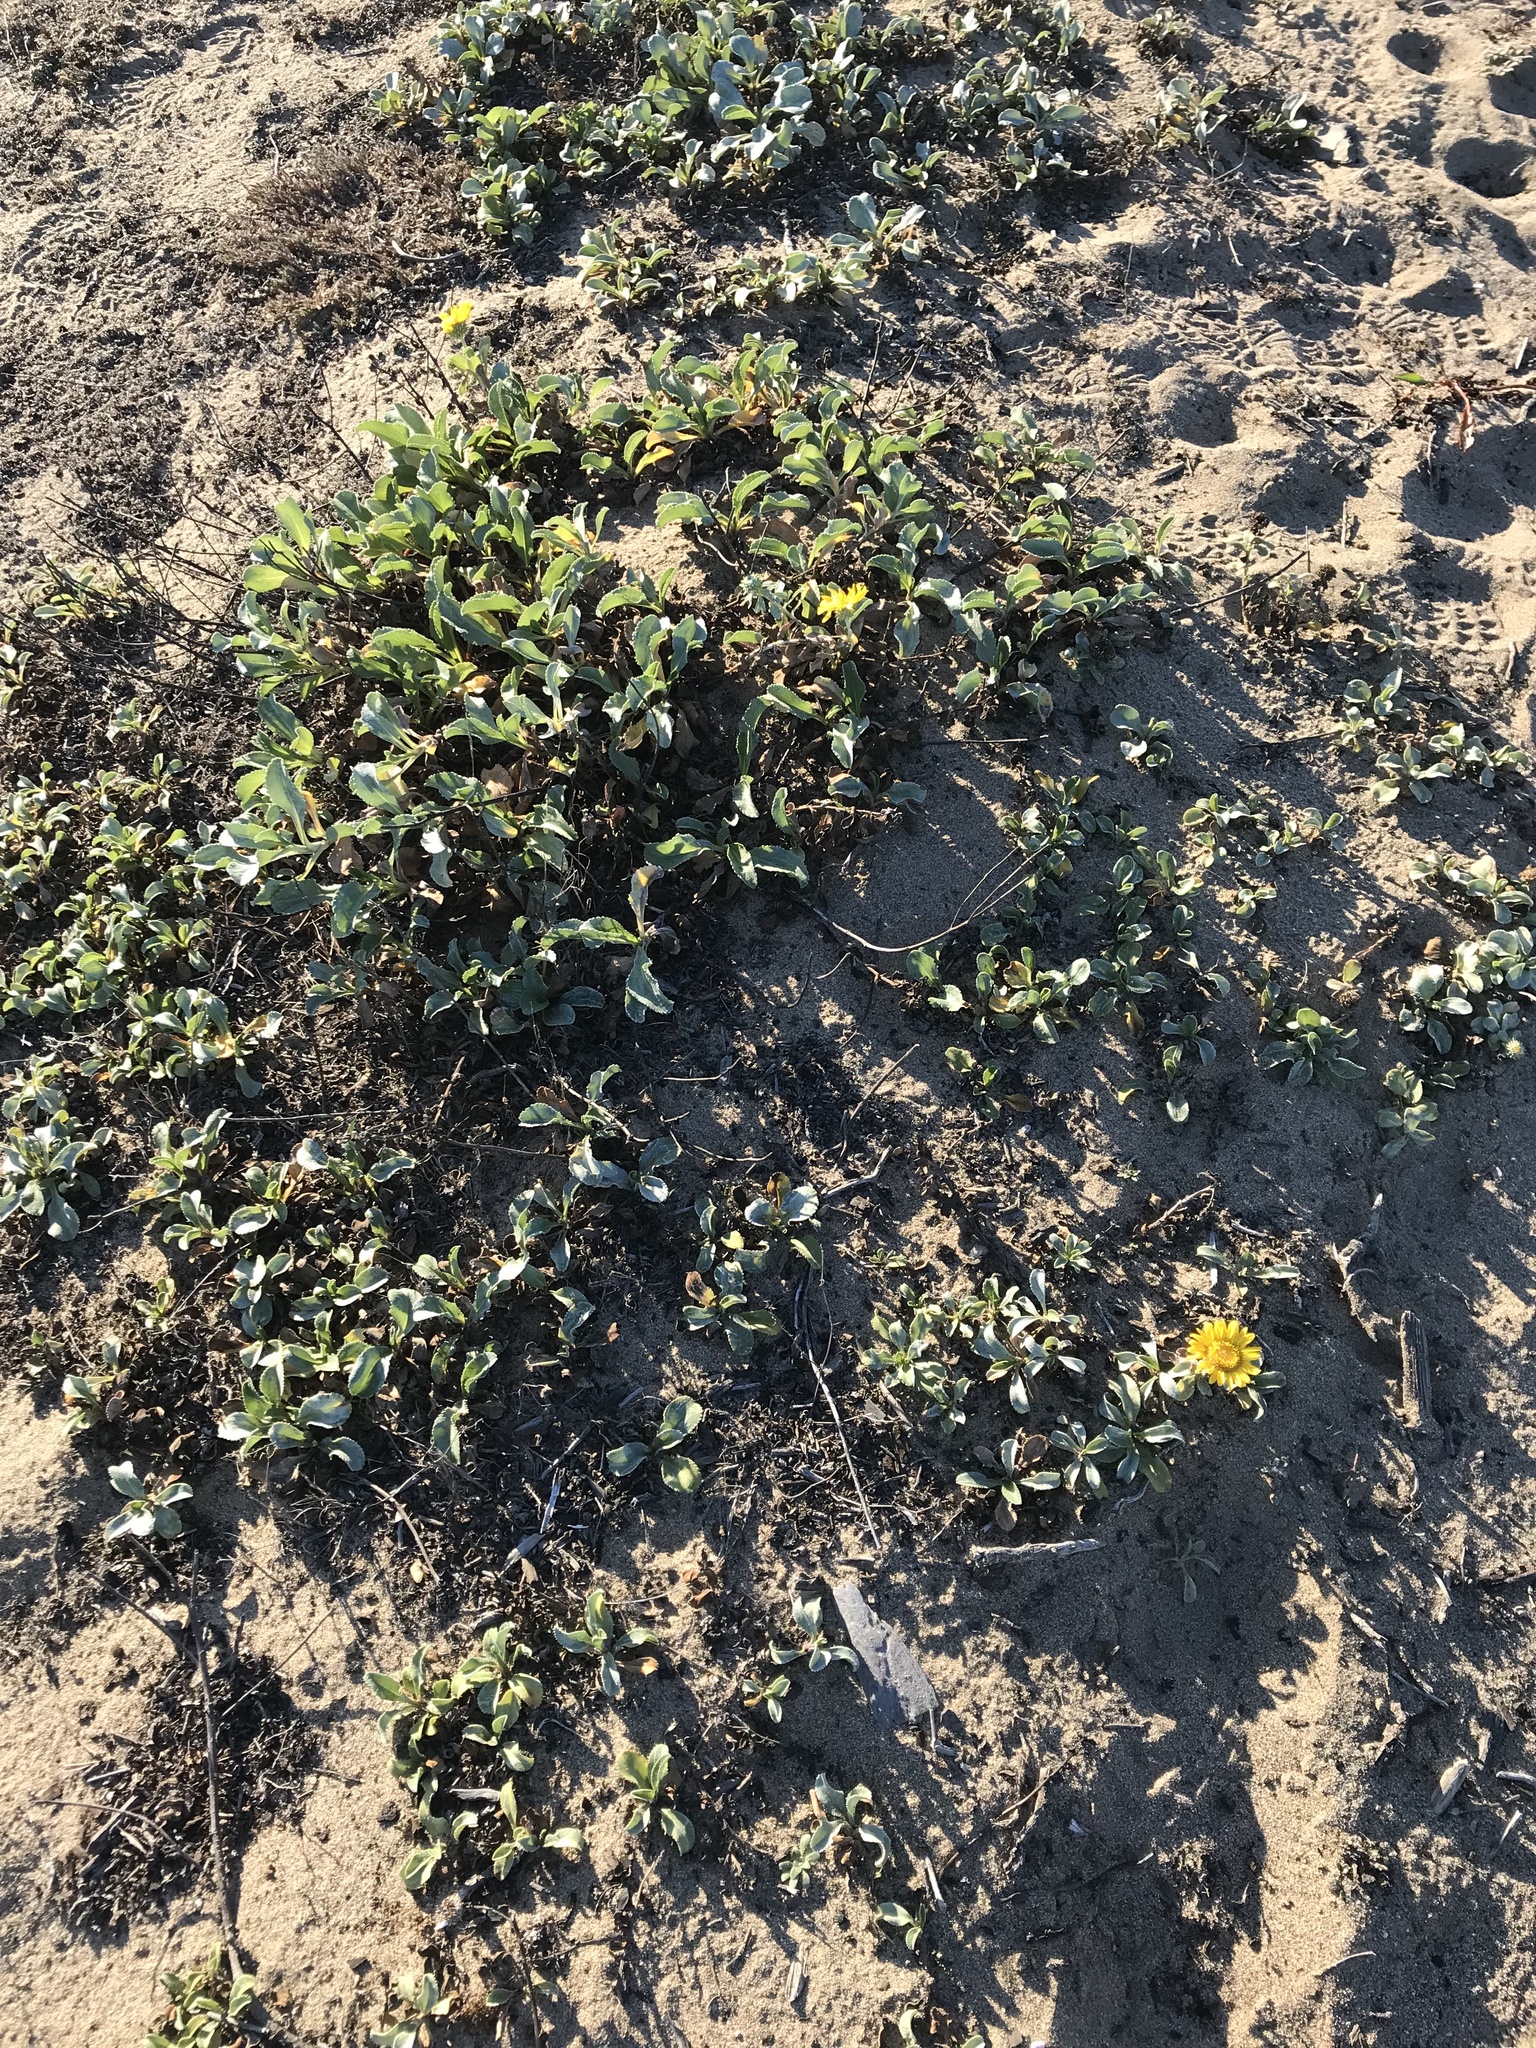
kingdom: Plantae
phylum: Tracheophyta
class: Magnoliopsida
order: Asterales
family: Asteraceae
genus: Grindelia
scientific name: Grindelia hirsutula
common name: Hairy gumweed
